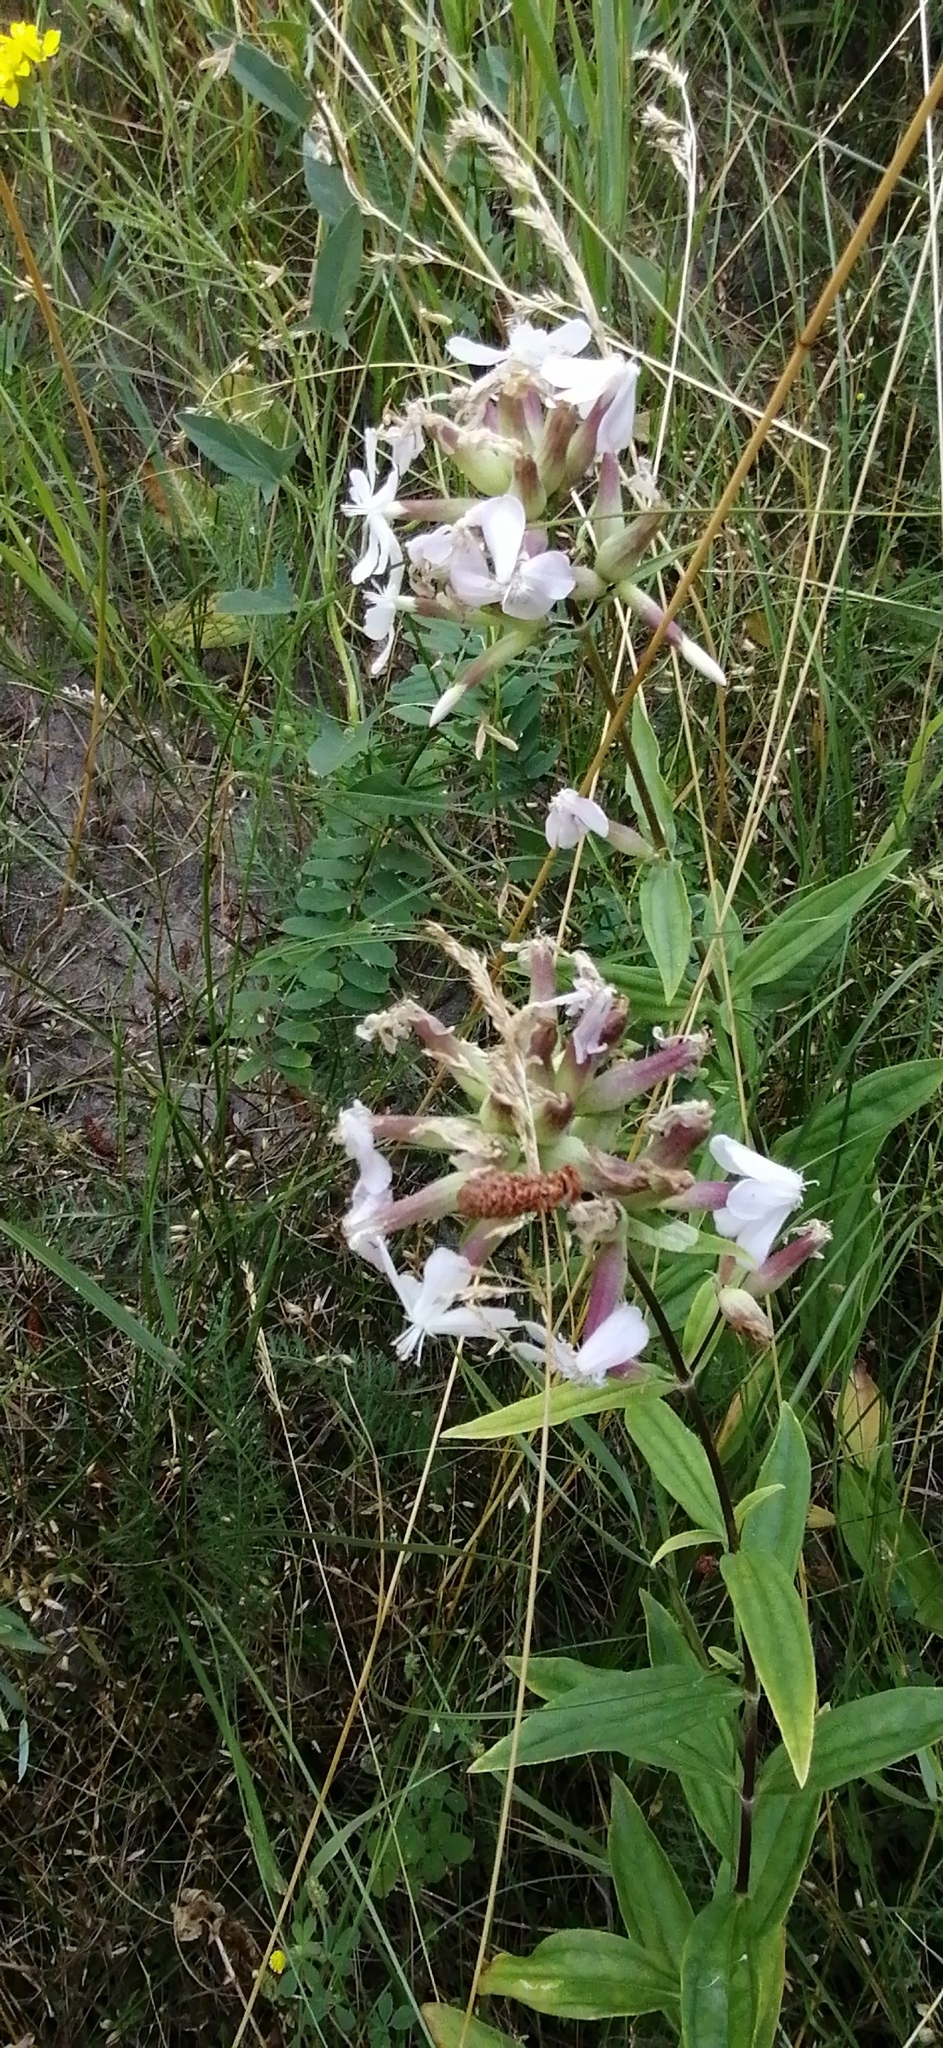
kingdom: Plantae
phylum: Tracheophyta
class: Magnoliopsida
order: Caryophyllales
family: Caryophyllaceae
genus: Saponaria
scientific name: Saponaria officinalis
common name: Soapwort
